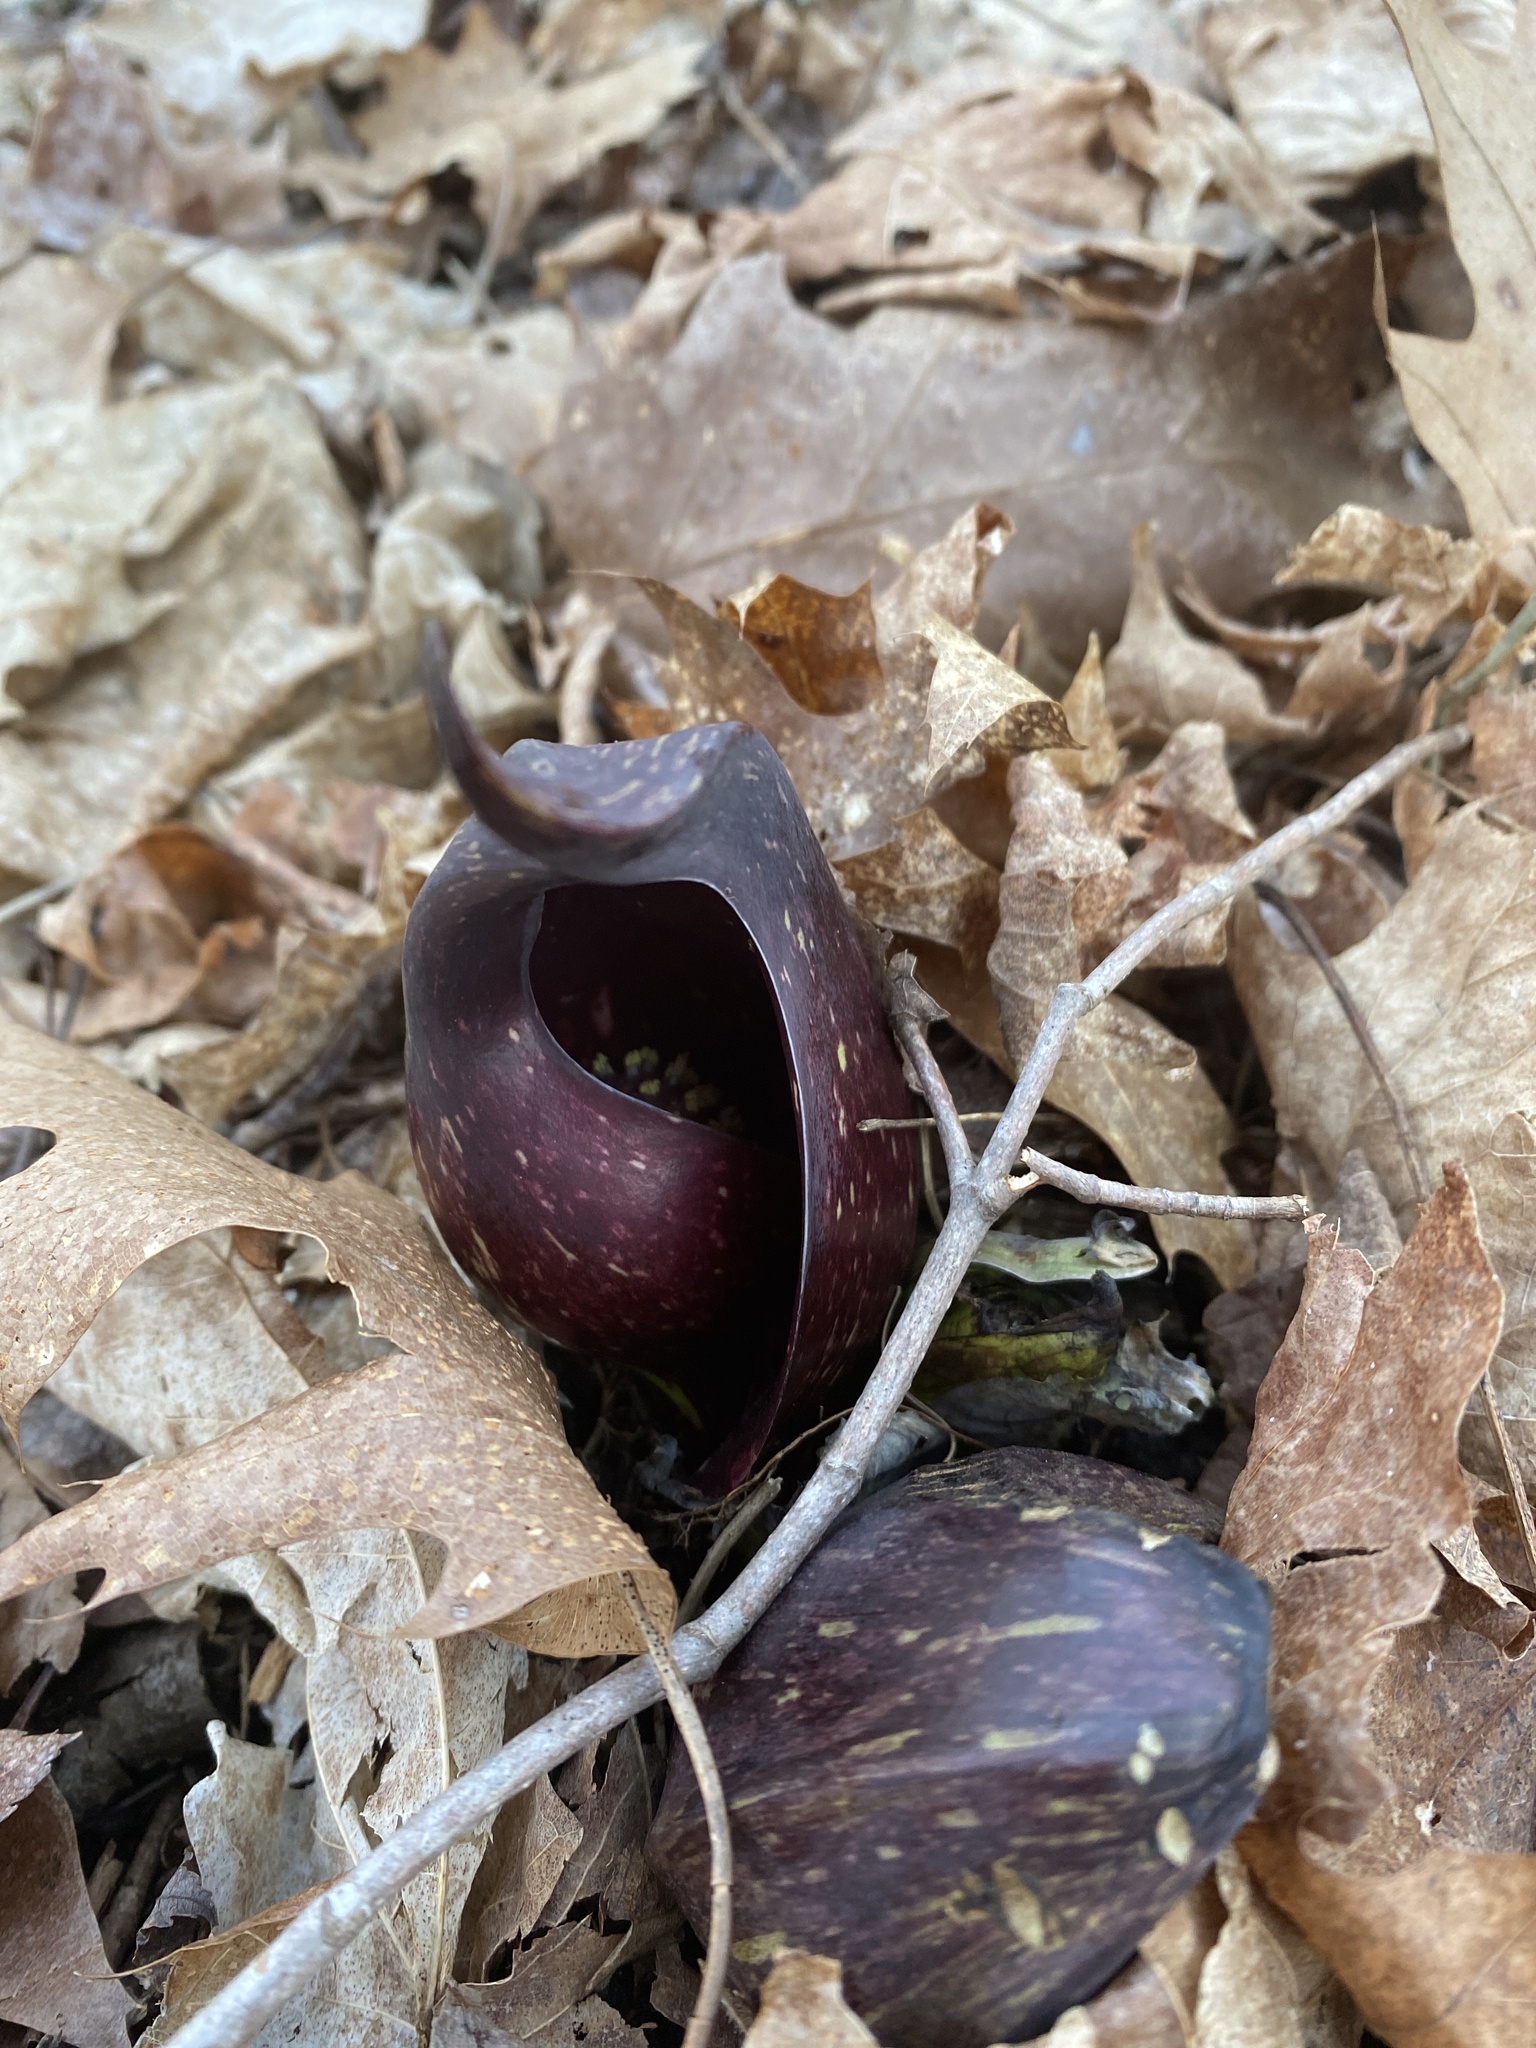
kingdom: Plantae
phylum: Tracheophyta
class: Liliopsida
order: Alismatales
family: Araceae
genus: Symplocarpus
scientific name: Symplocarpus foetidus
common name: Eastern skunk cabbage
